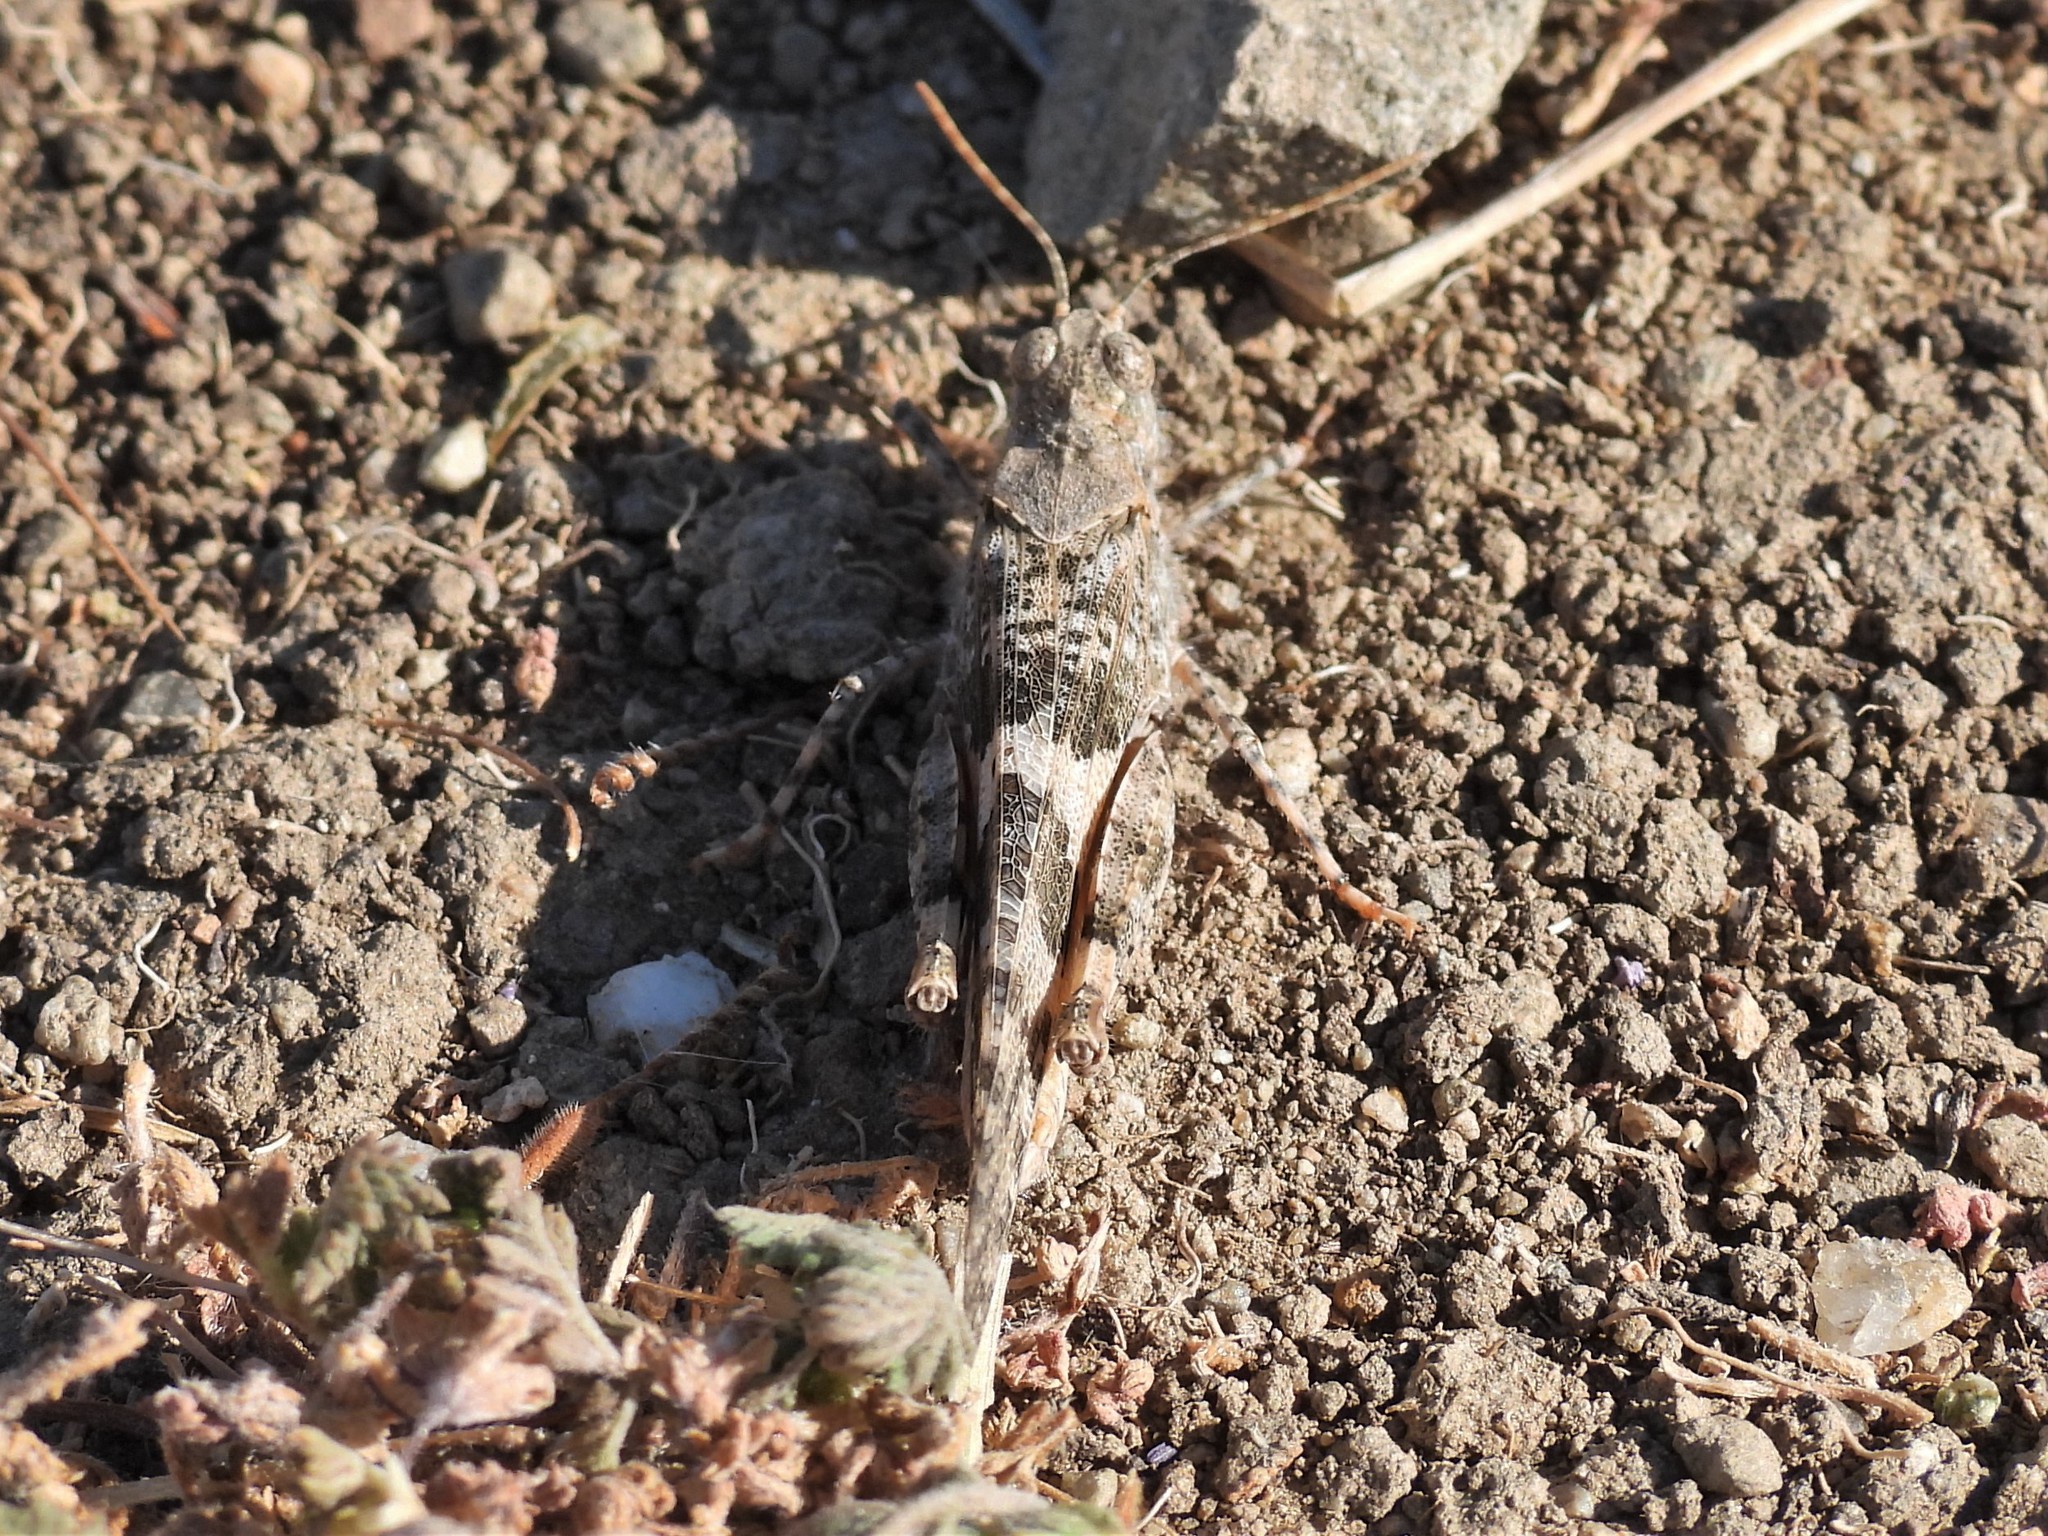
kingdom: Animalia
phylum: Arthropoda
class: Insecta
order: Orthoptera
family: Acrididae
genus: Trimerotropis
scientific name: Trimerotropis pallidipennis
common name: Pallid-winged grasshopper
